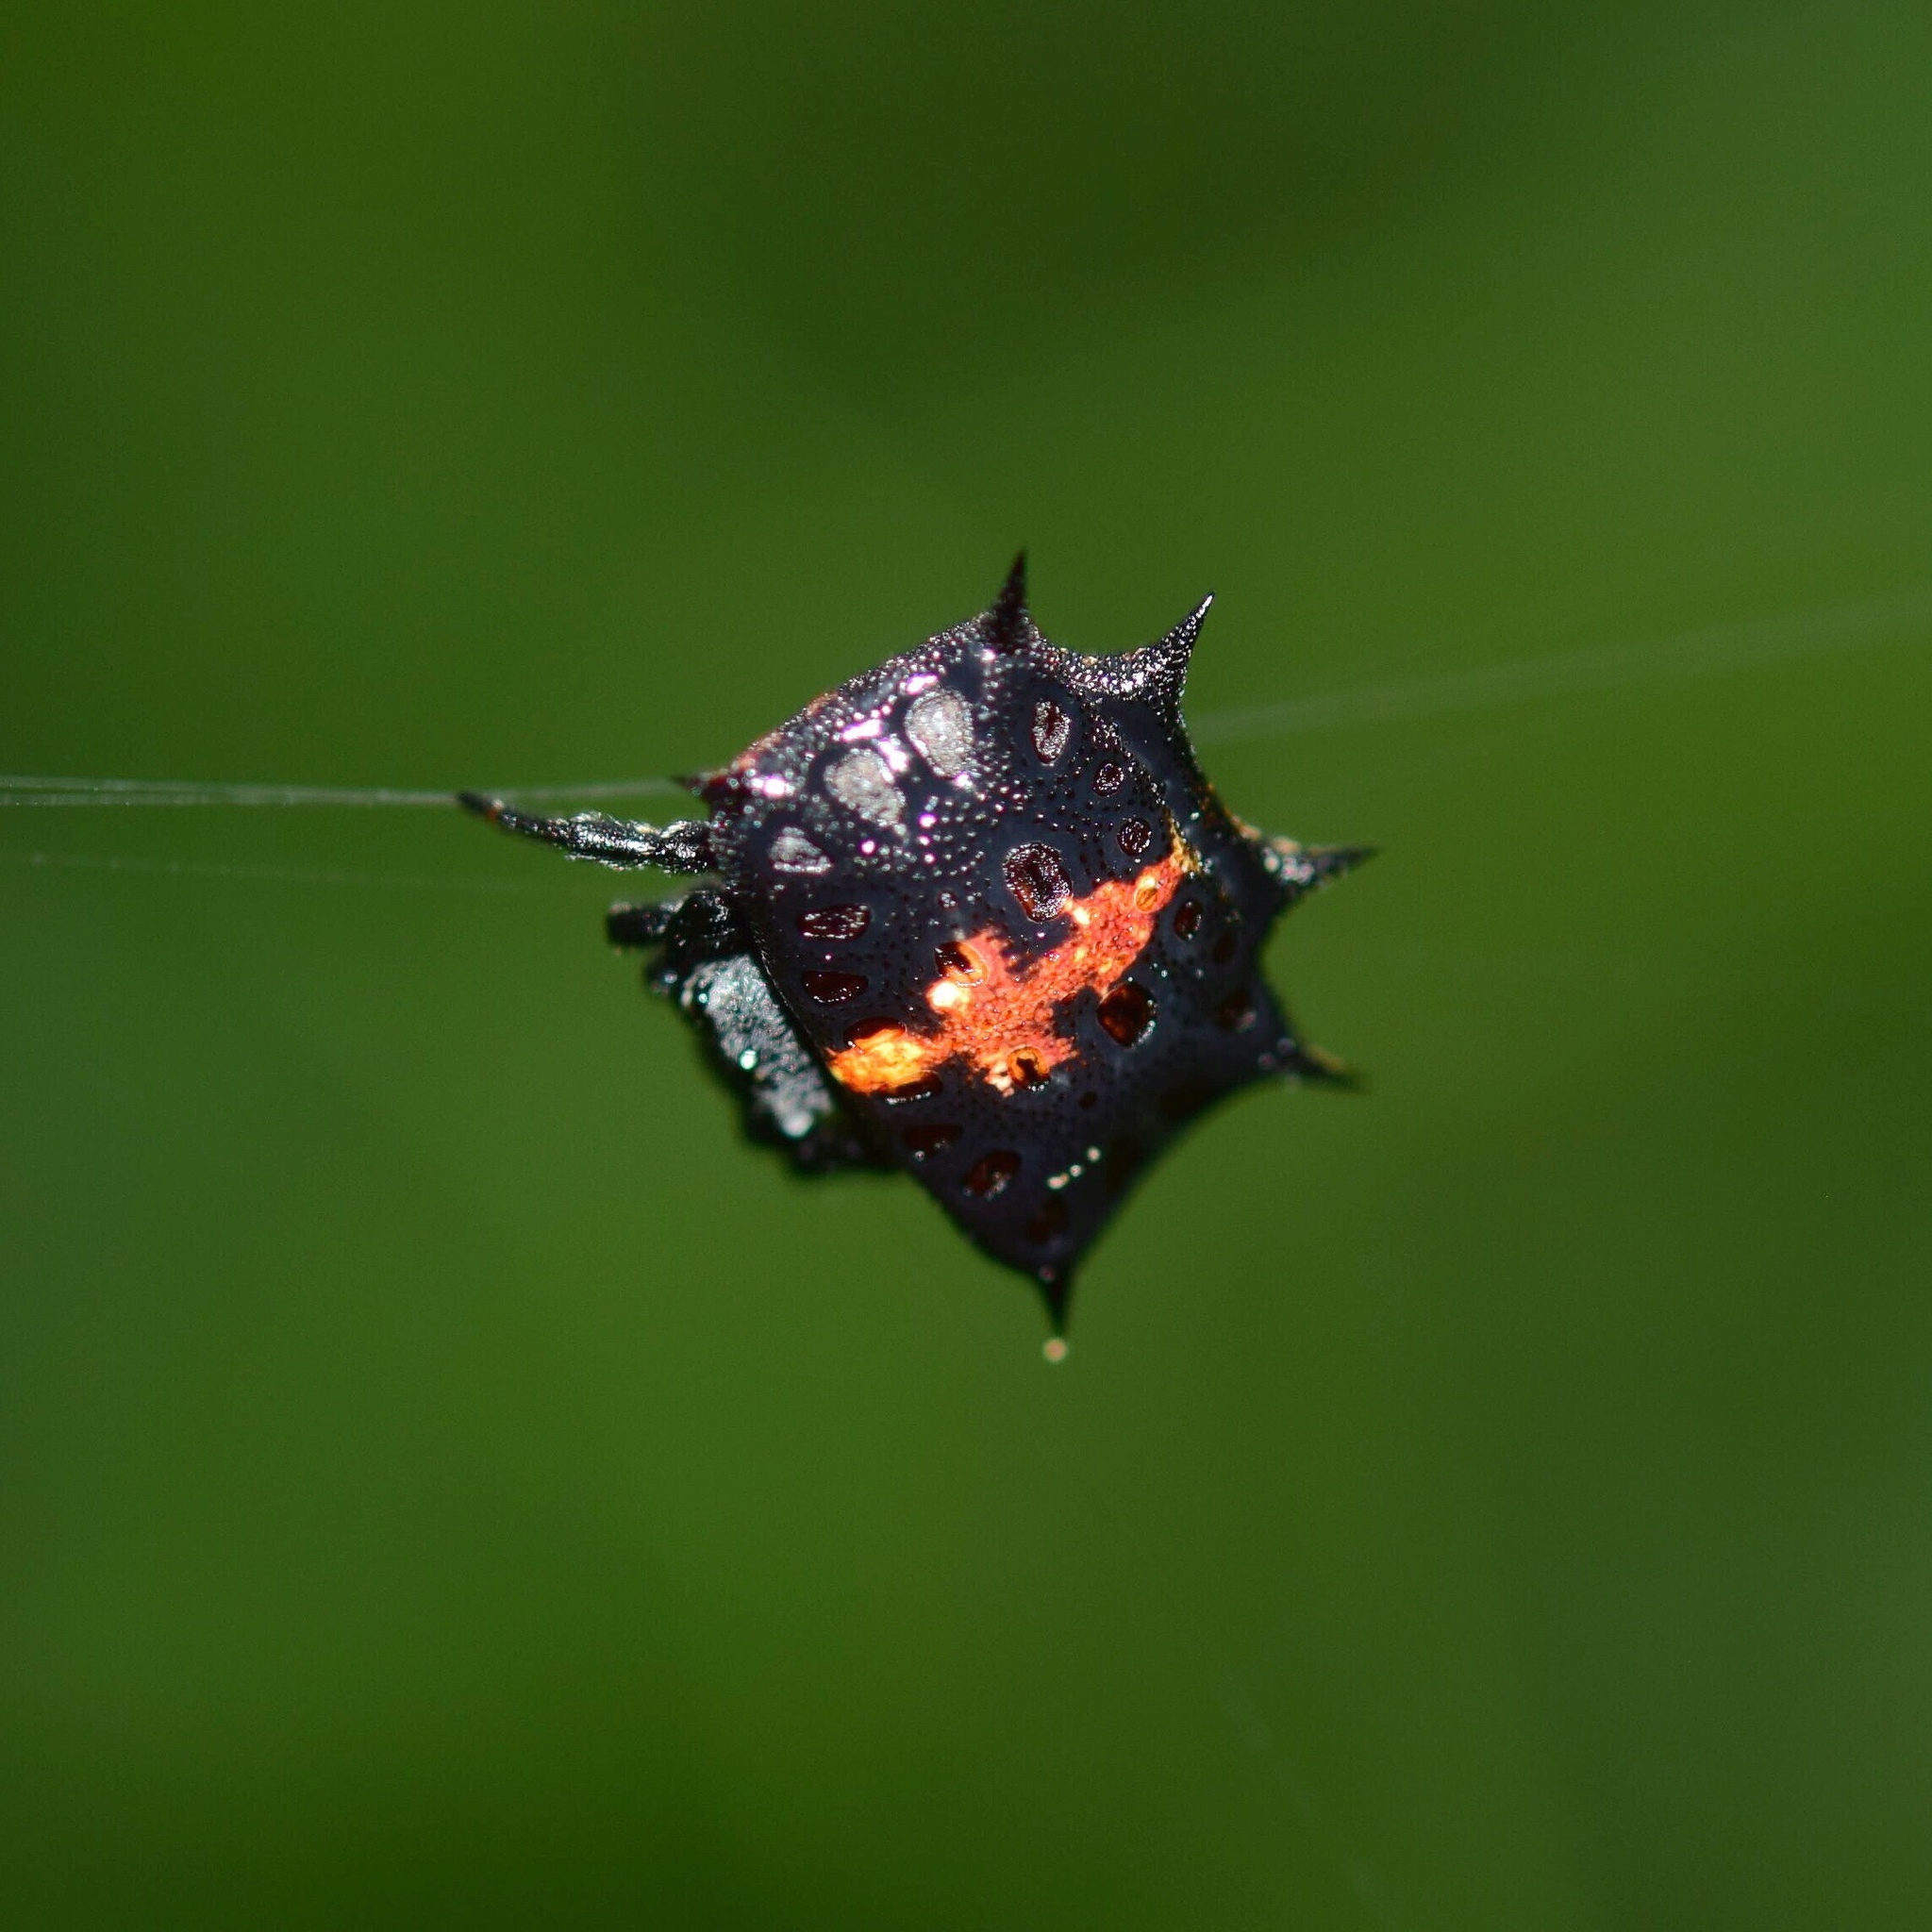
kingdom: Animalia
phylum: Arthropoda
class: Arachnida
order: Araneae
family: Araneidae
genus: Isoxya
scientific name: Isoxya tabulata
